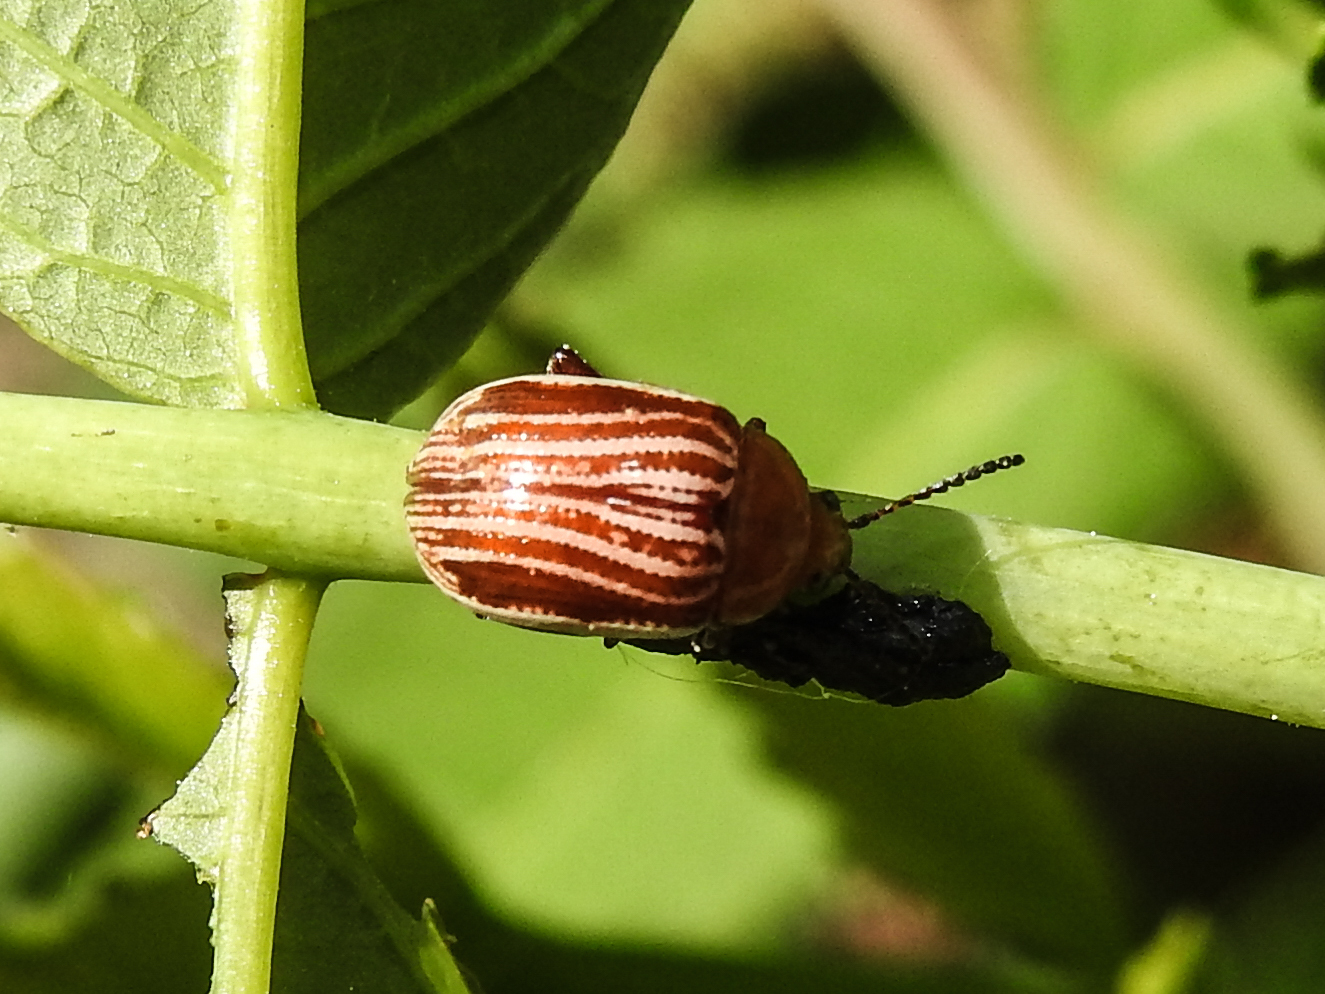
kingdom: Animalia
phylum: Arthropoda
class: Insecta
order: Coleoptera
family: Chrysomelidae
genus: Blepharida
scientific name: Blepharida rhois
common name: Sumac flea beetle
